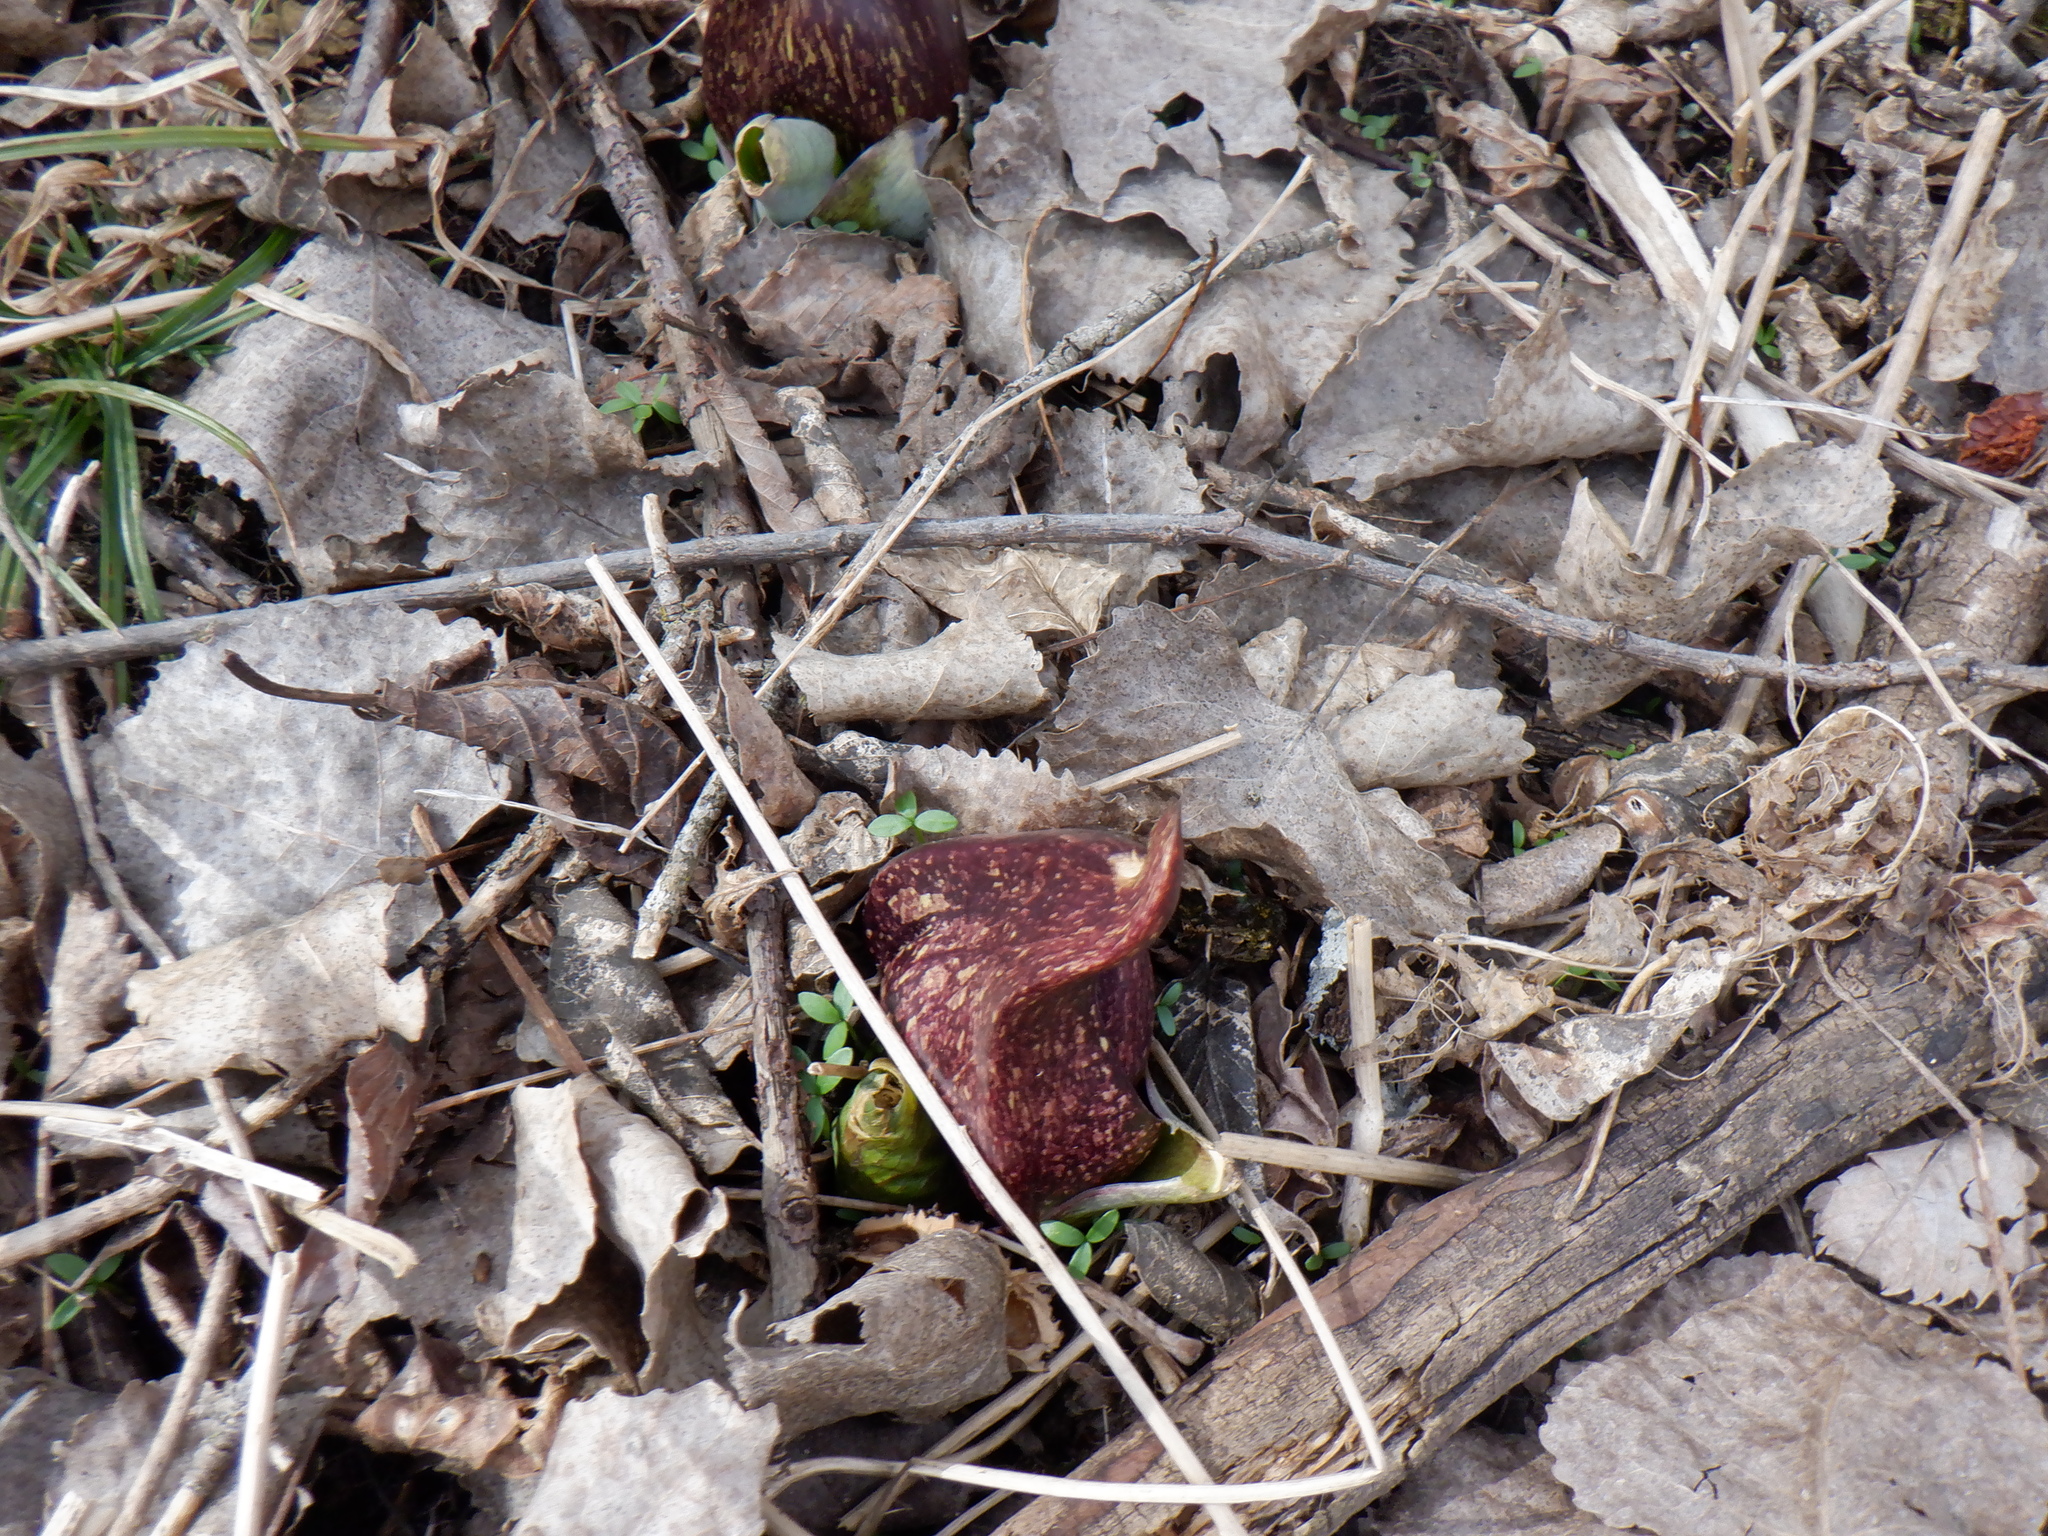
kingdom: Plantae
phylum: Tracheophyta
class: Liliopsida
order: Alismatales
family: Araceae
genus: Symplocarpus
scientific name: Symplocarpus foetidus
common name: Eastern skunk cabbage
